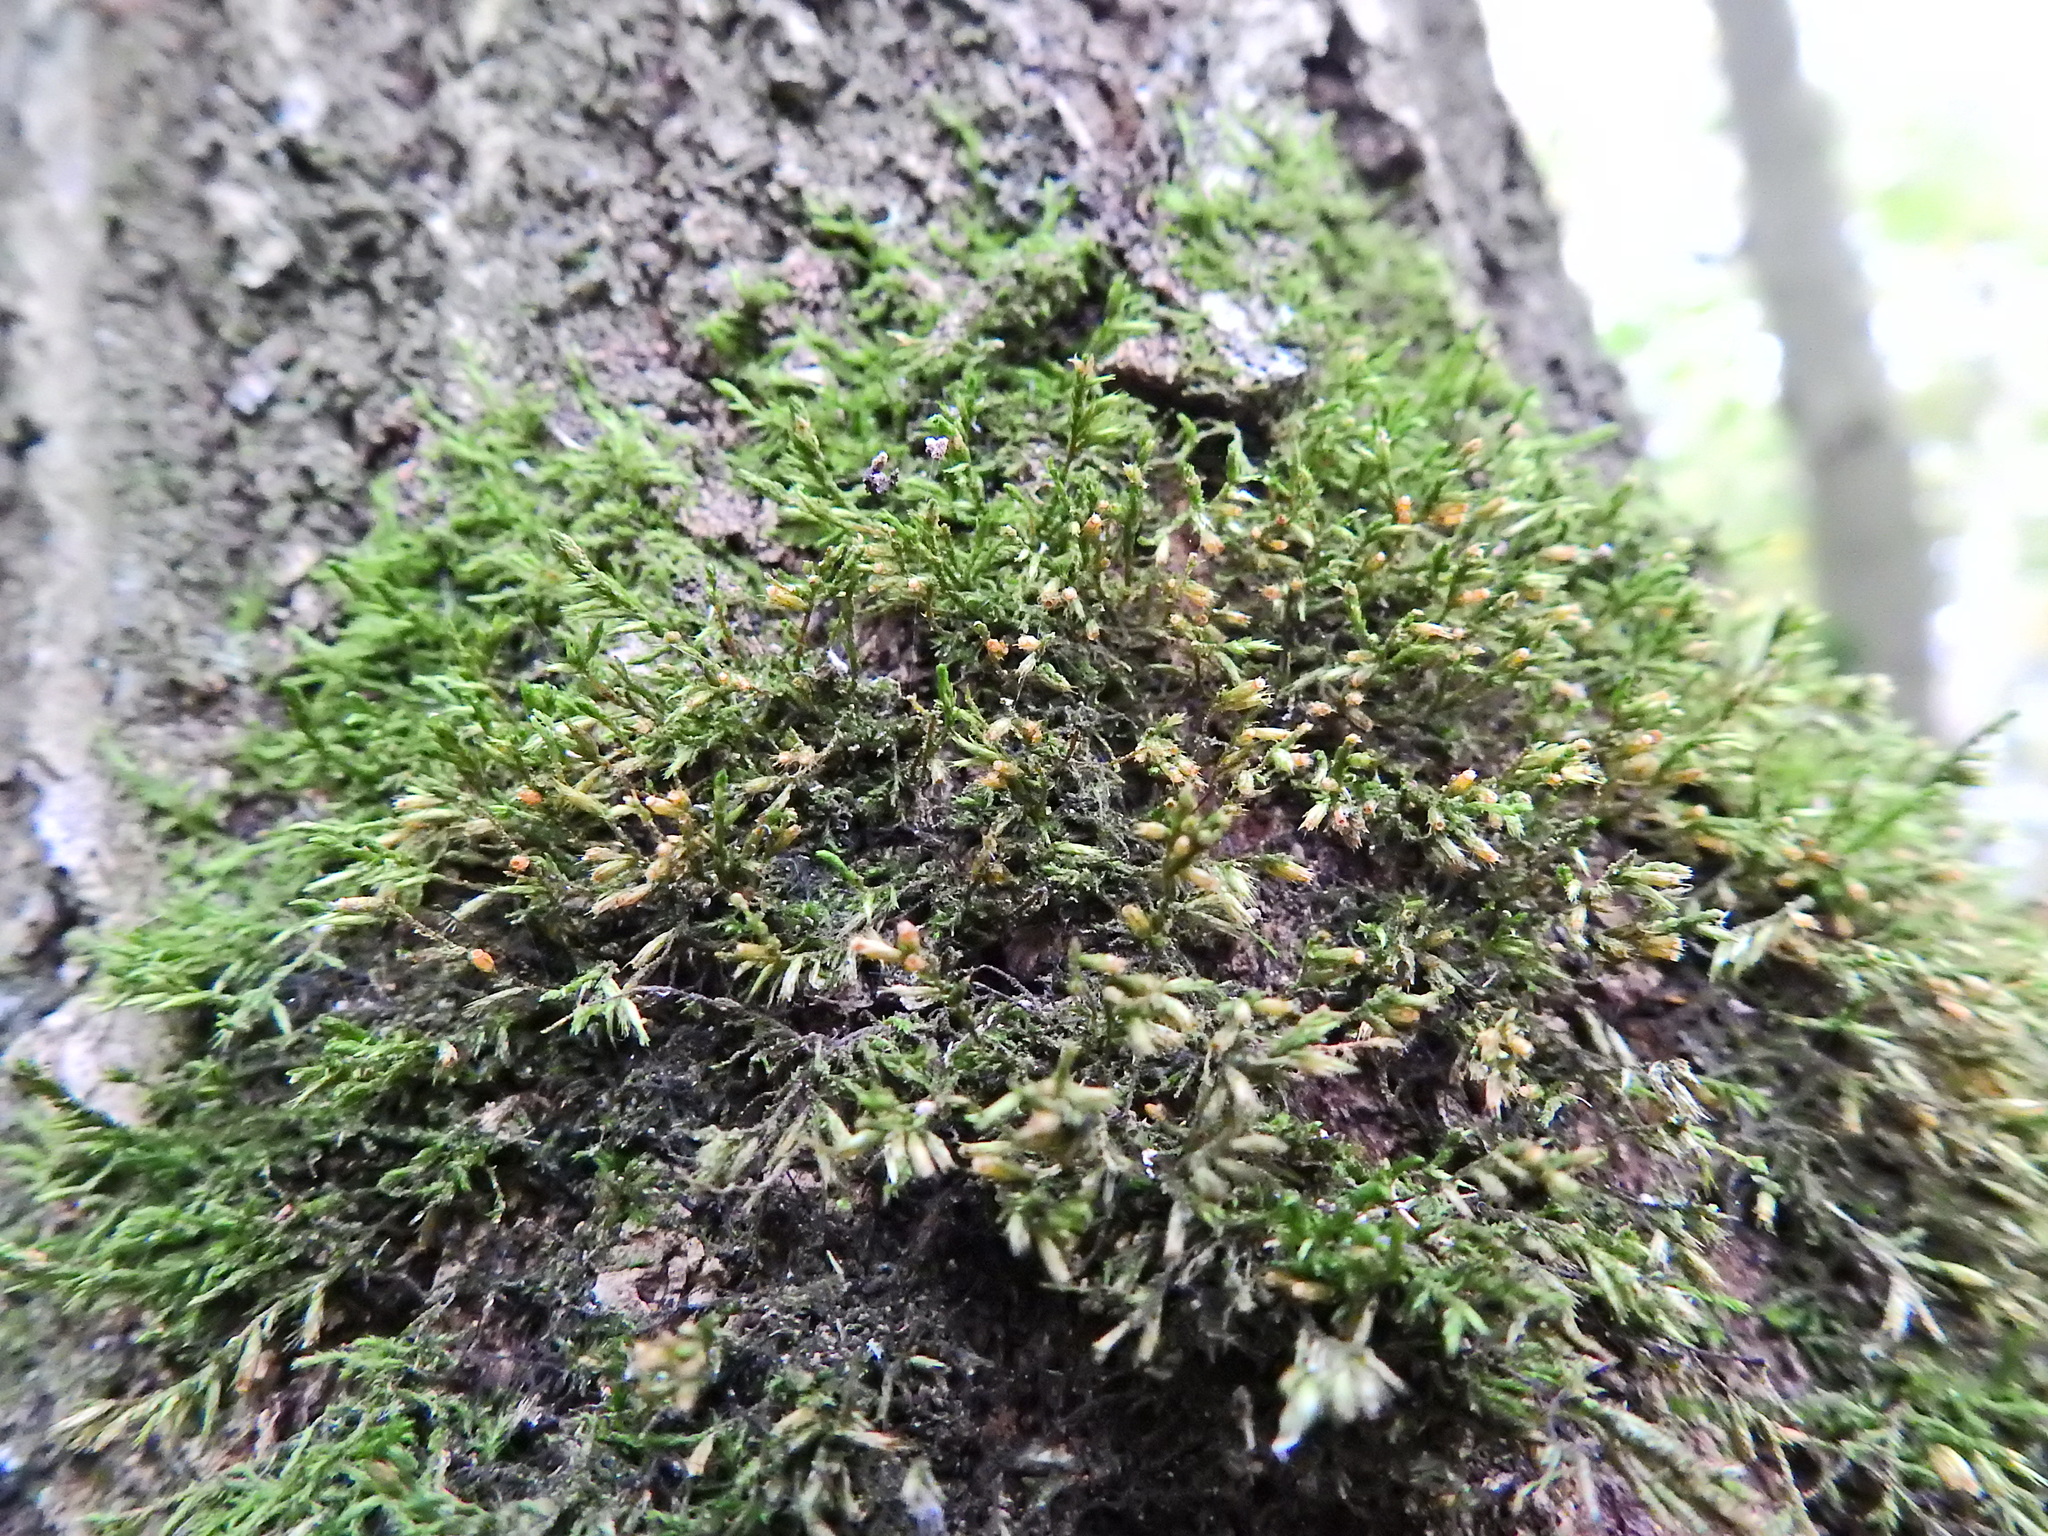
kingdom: Plantae
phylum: Bryophyta
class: Bryopsida
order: Hypnales
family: Cryphaeaceae
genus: Cryphaea
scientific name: Cryphaea heteromalla
